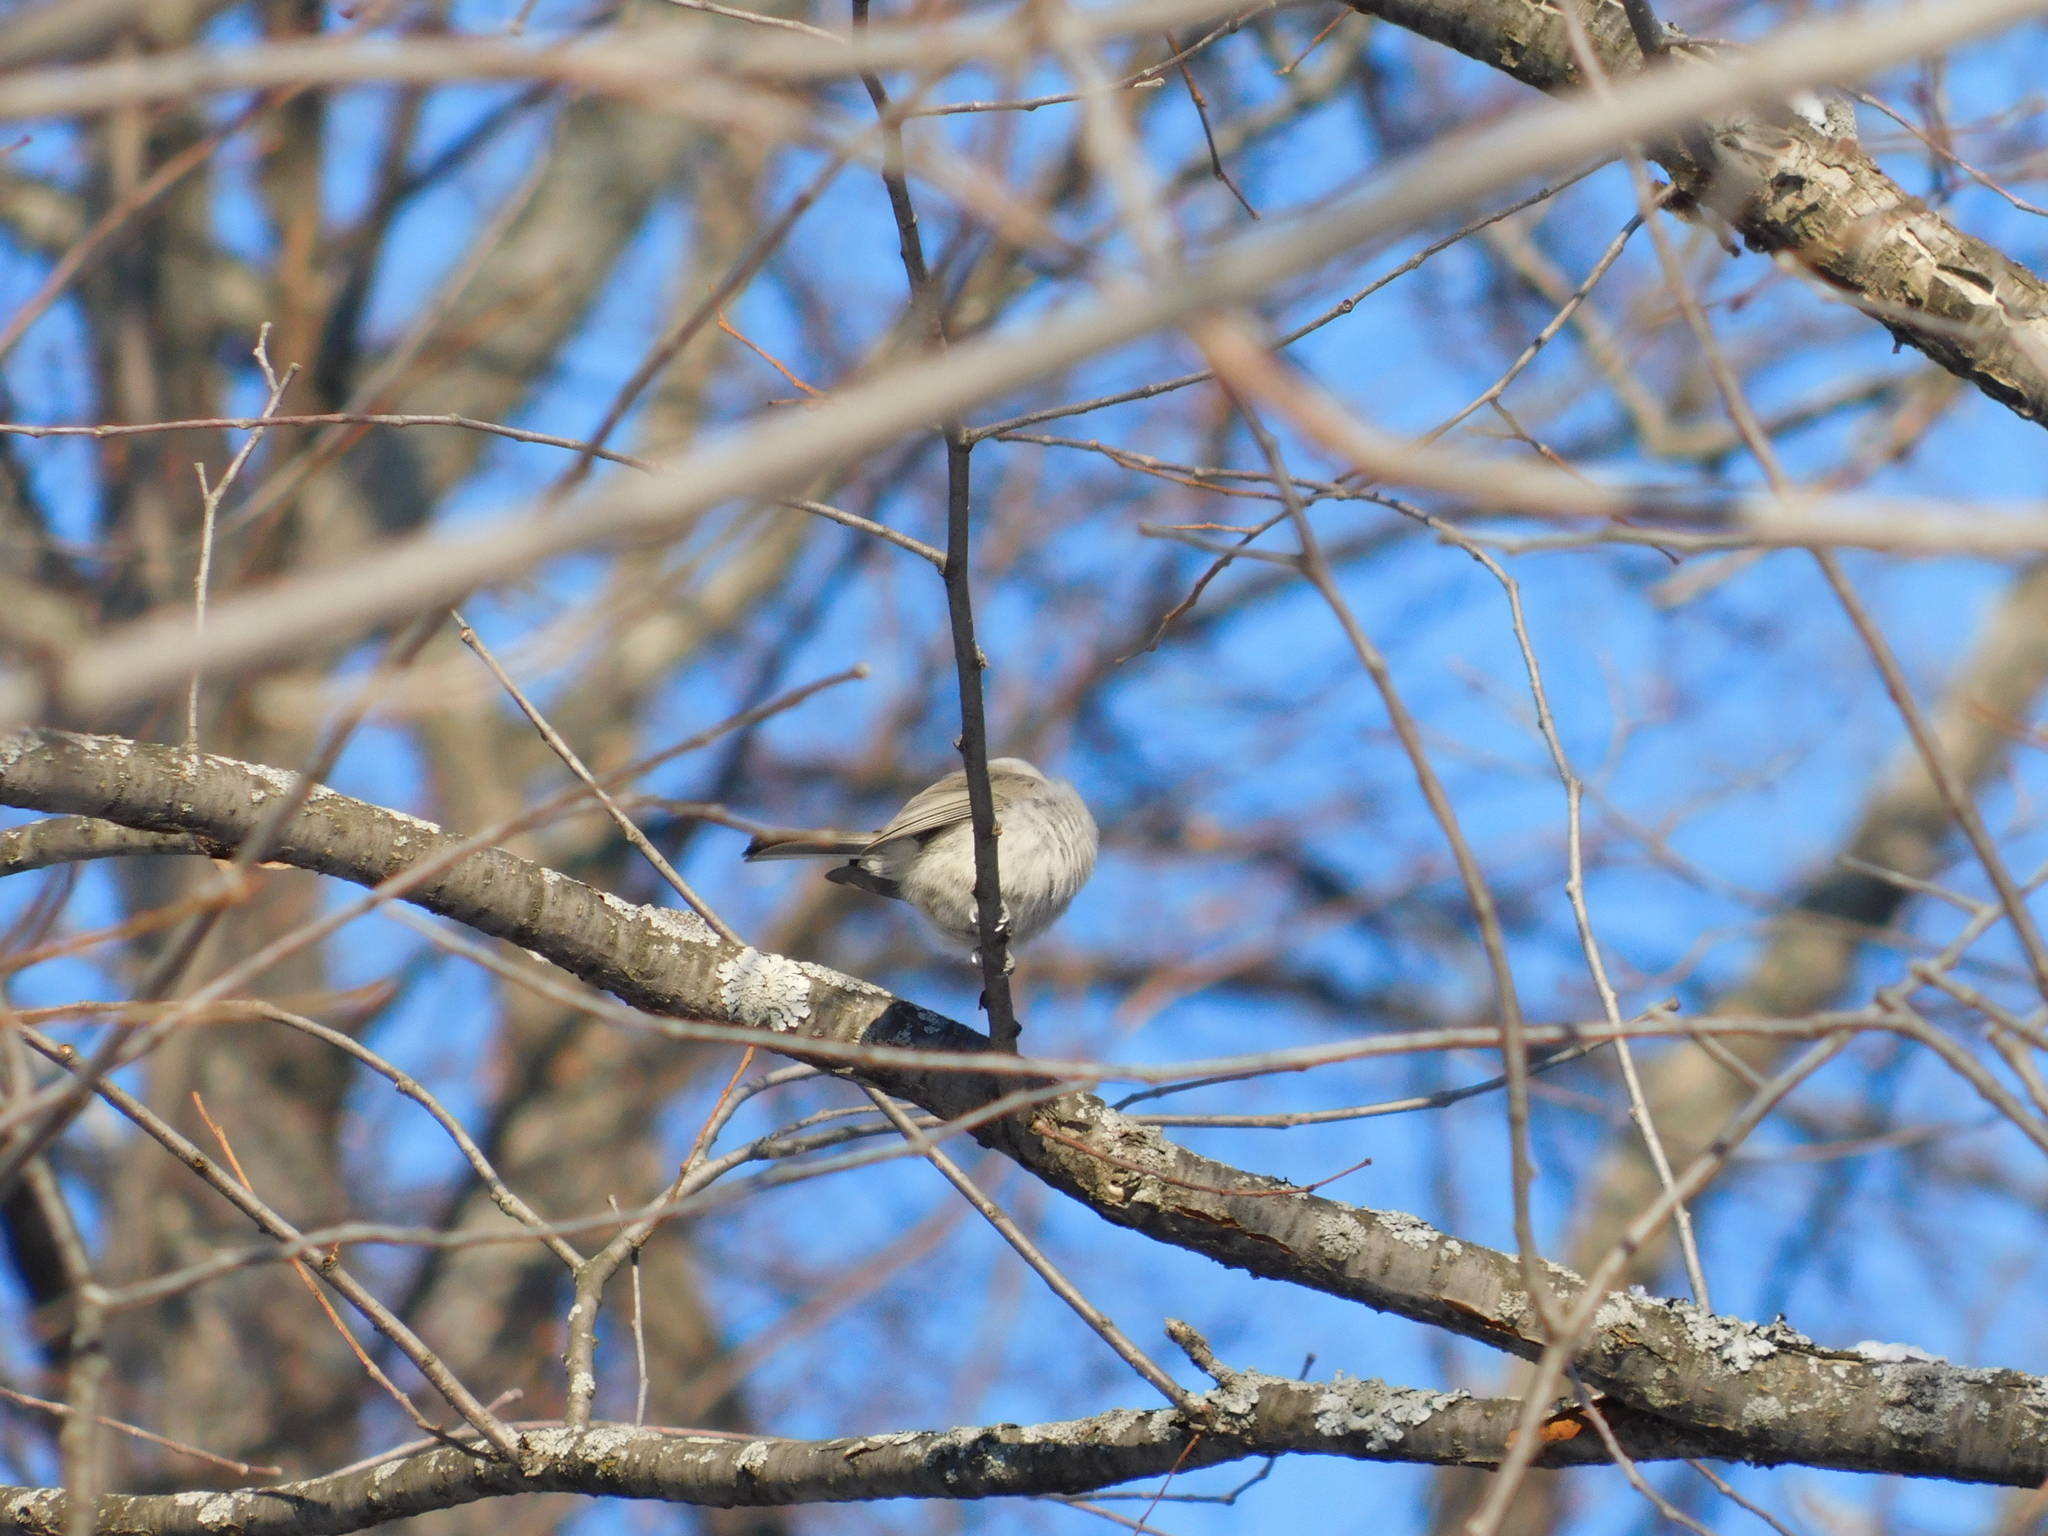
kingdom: Animalia
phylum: Chordata
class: Aves
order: Passeriformes
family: Paridae
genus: Poecile
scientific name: Poecile palustris
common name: Marsh tit
